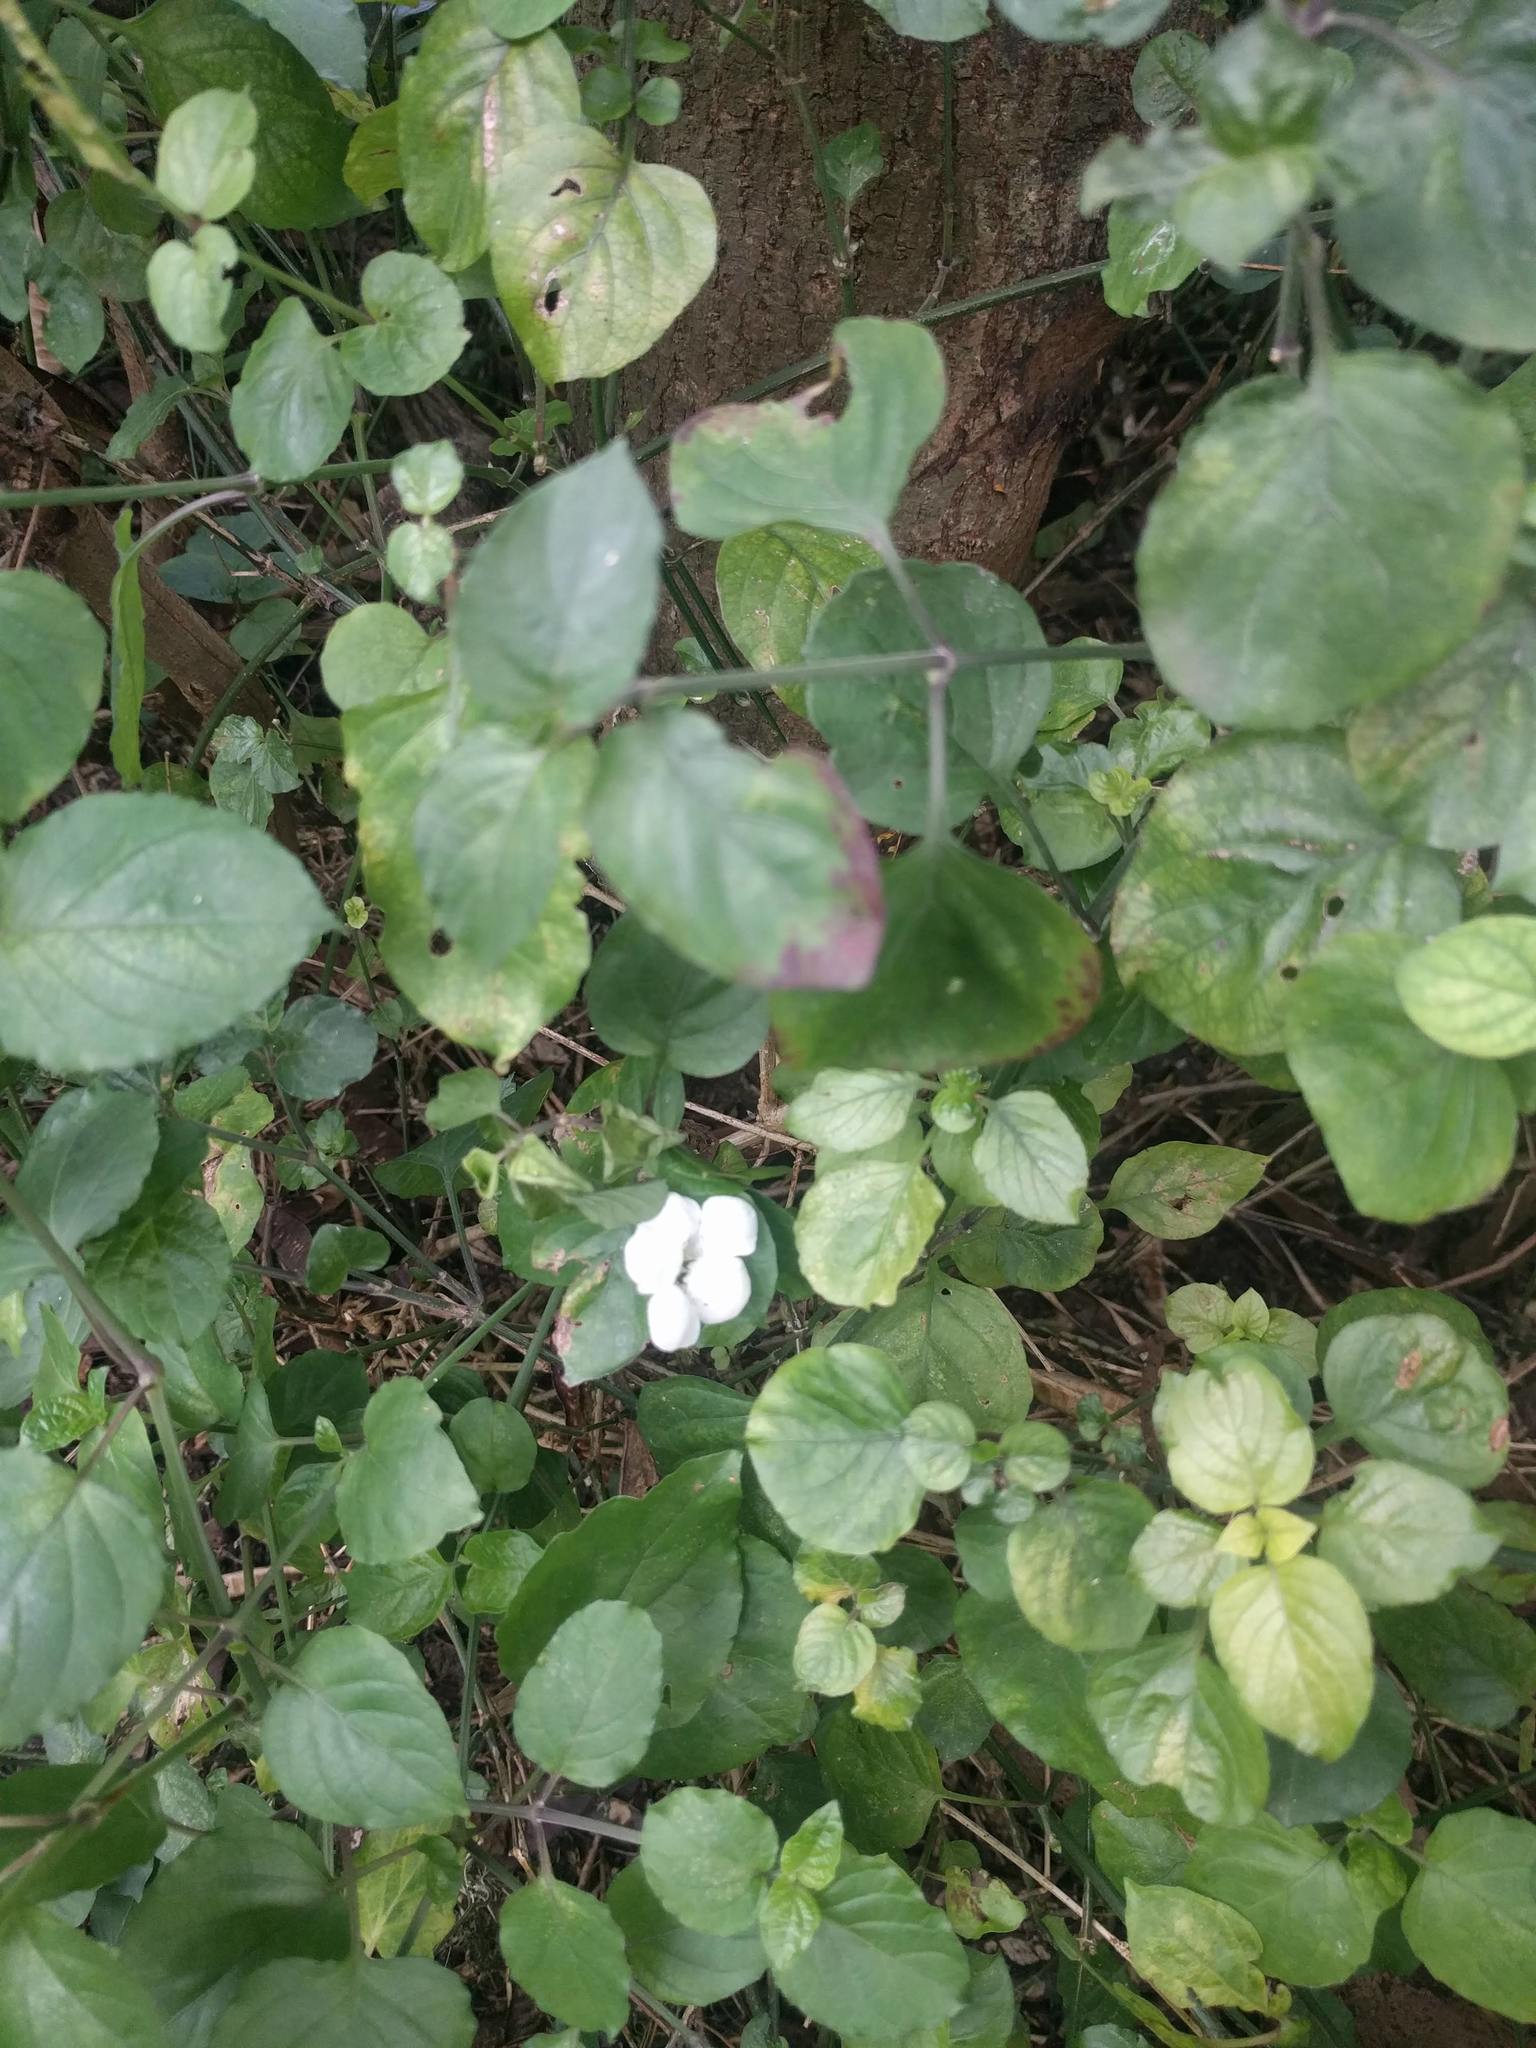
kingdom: Plantae
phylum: Tracheophyta
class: Magnoliopsida
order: Lamiales
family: Acanthaceae
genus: Asystasia
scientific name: Asystasia gangetica
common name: Chinese violet
